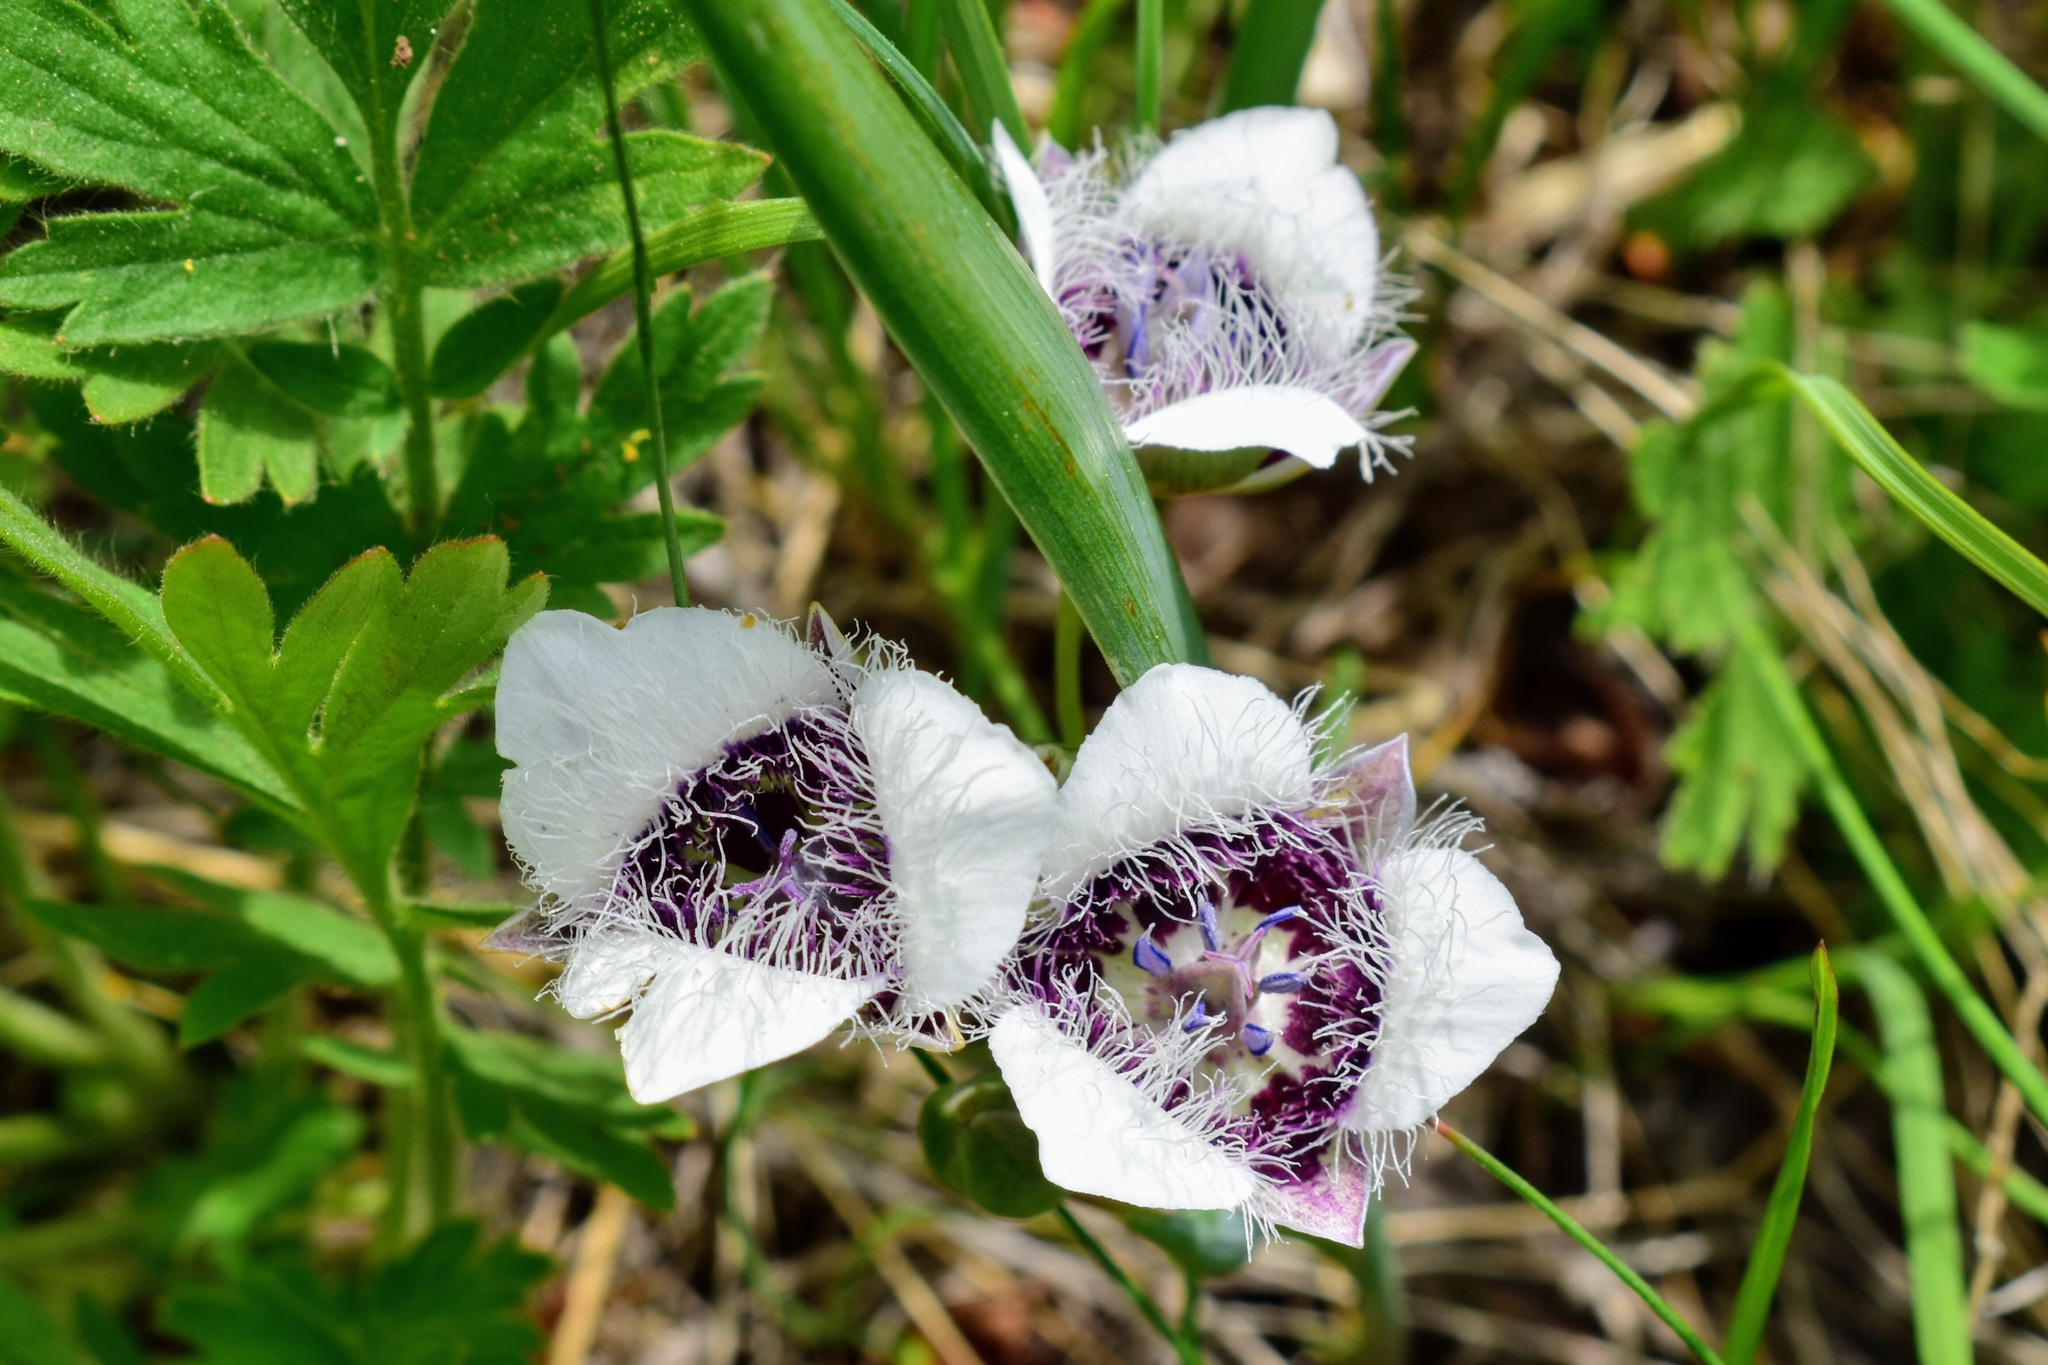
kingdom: Plantae
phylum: Tracheophyta
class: Liliopsida
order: Liliales
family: Liliaceae
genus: Calochortus
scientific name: Calochortus elegans
